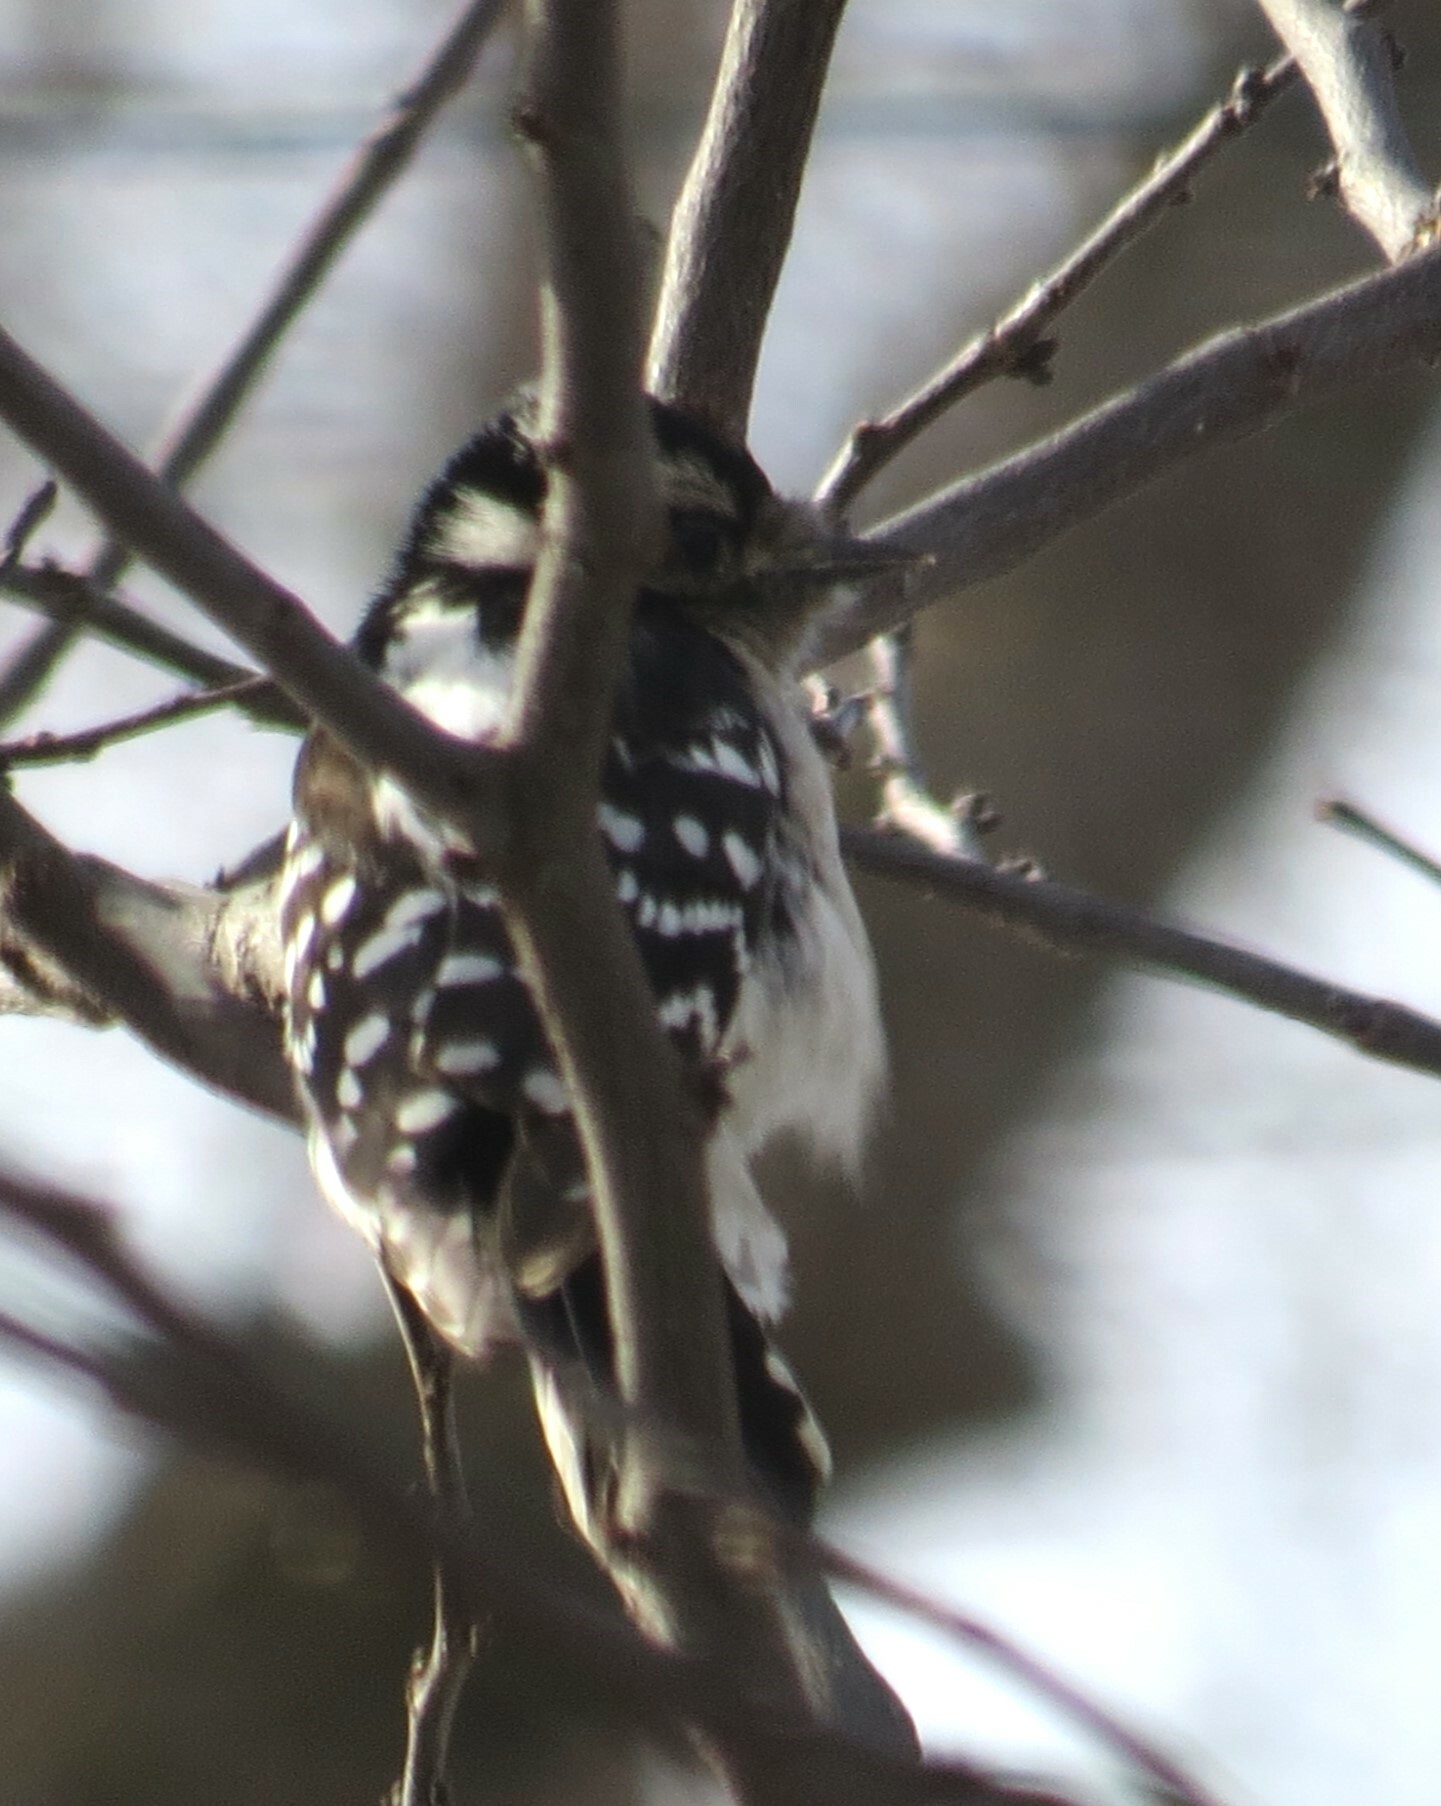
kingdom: Animalia
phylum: Chordata
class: Aves
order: Piciformes
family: Picidae
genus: Dryobates
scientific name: Dryobates pubescens
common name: Downy woodpecker
